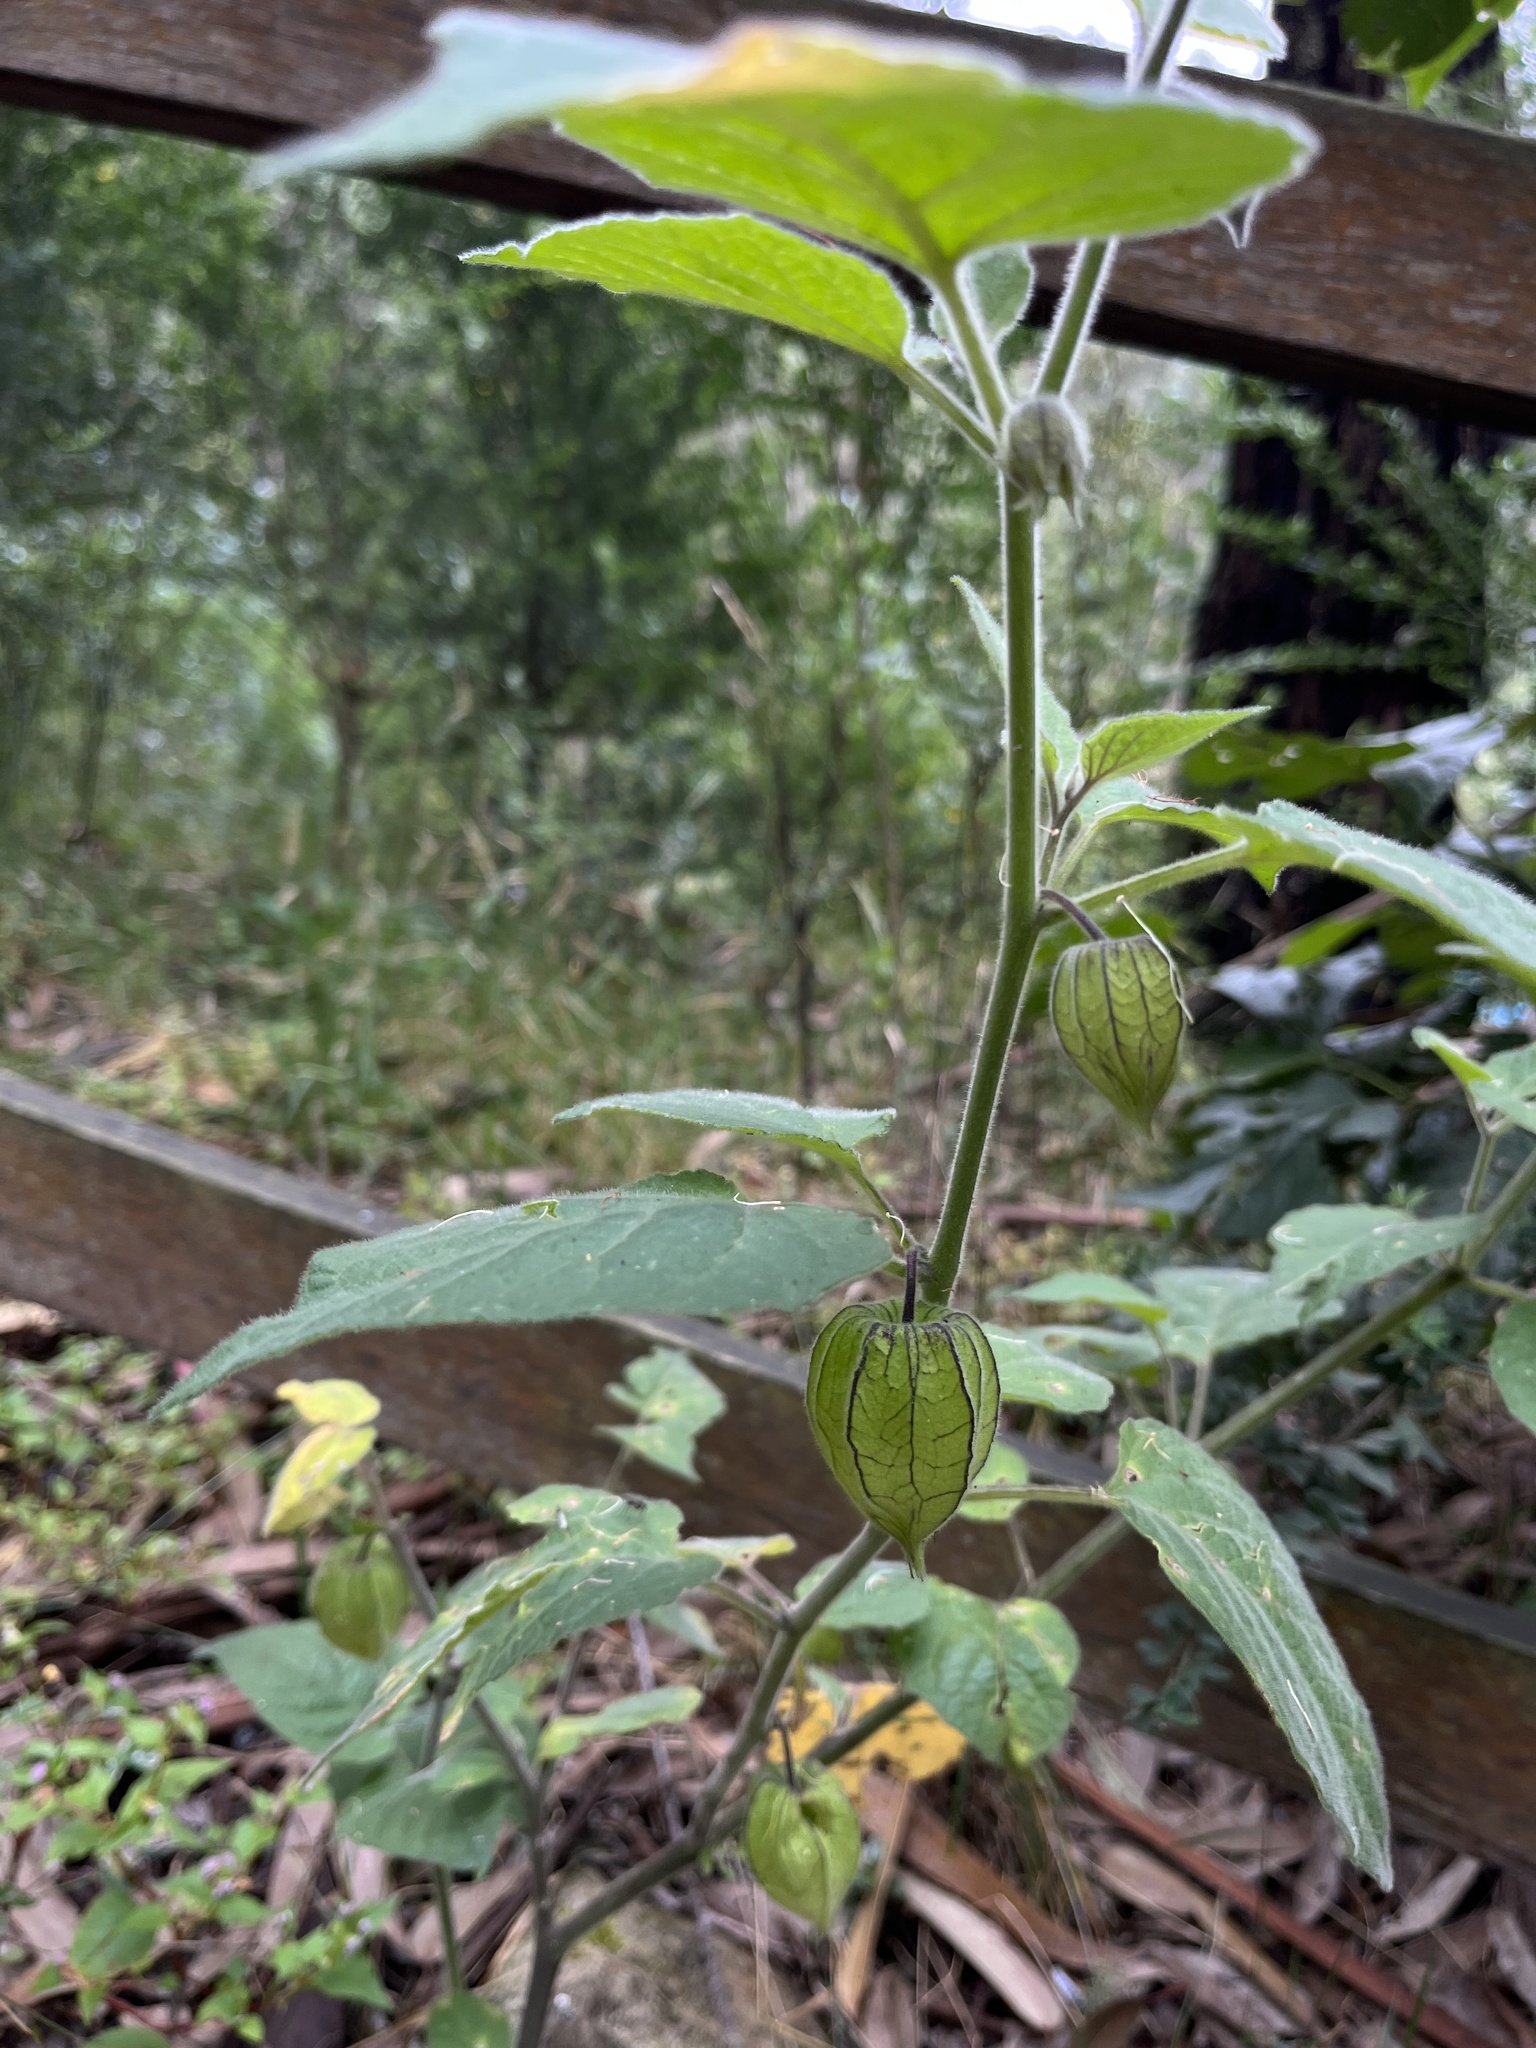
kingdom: Plantae
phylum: Tracheophyta
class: Magnoliopsida
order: Solanales
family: Solanaceae
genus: Physalis
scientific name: Physalis peruviana
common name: Cape-gooseberry
